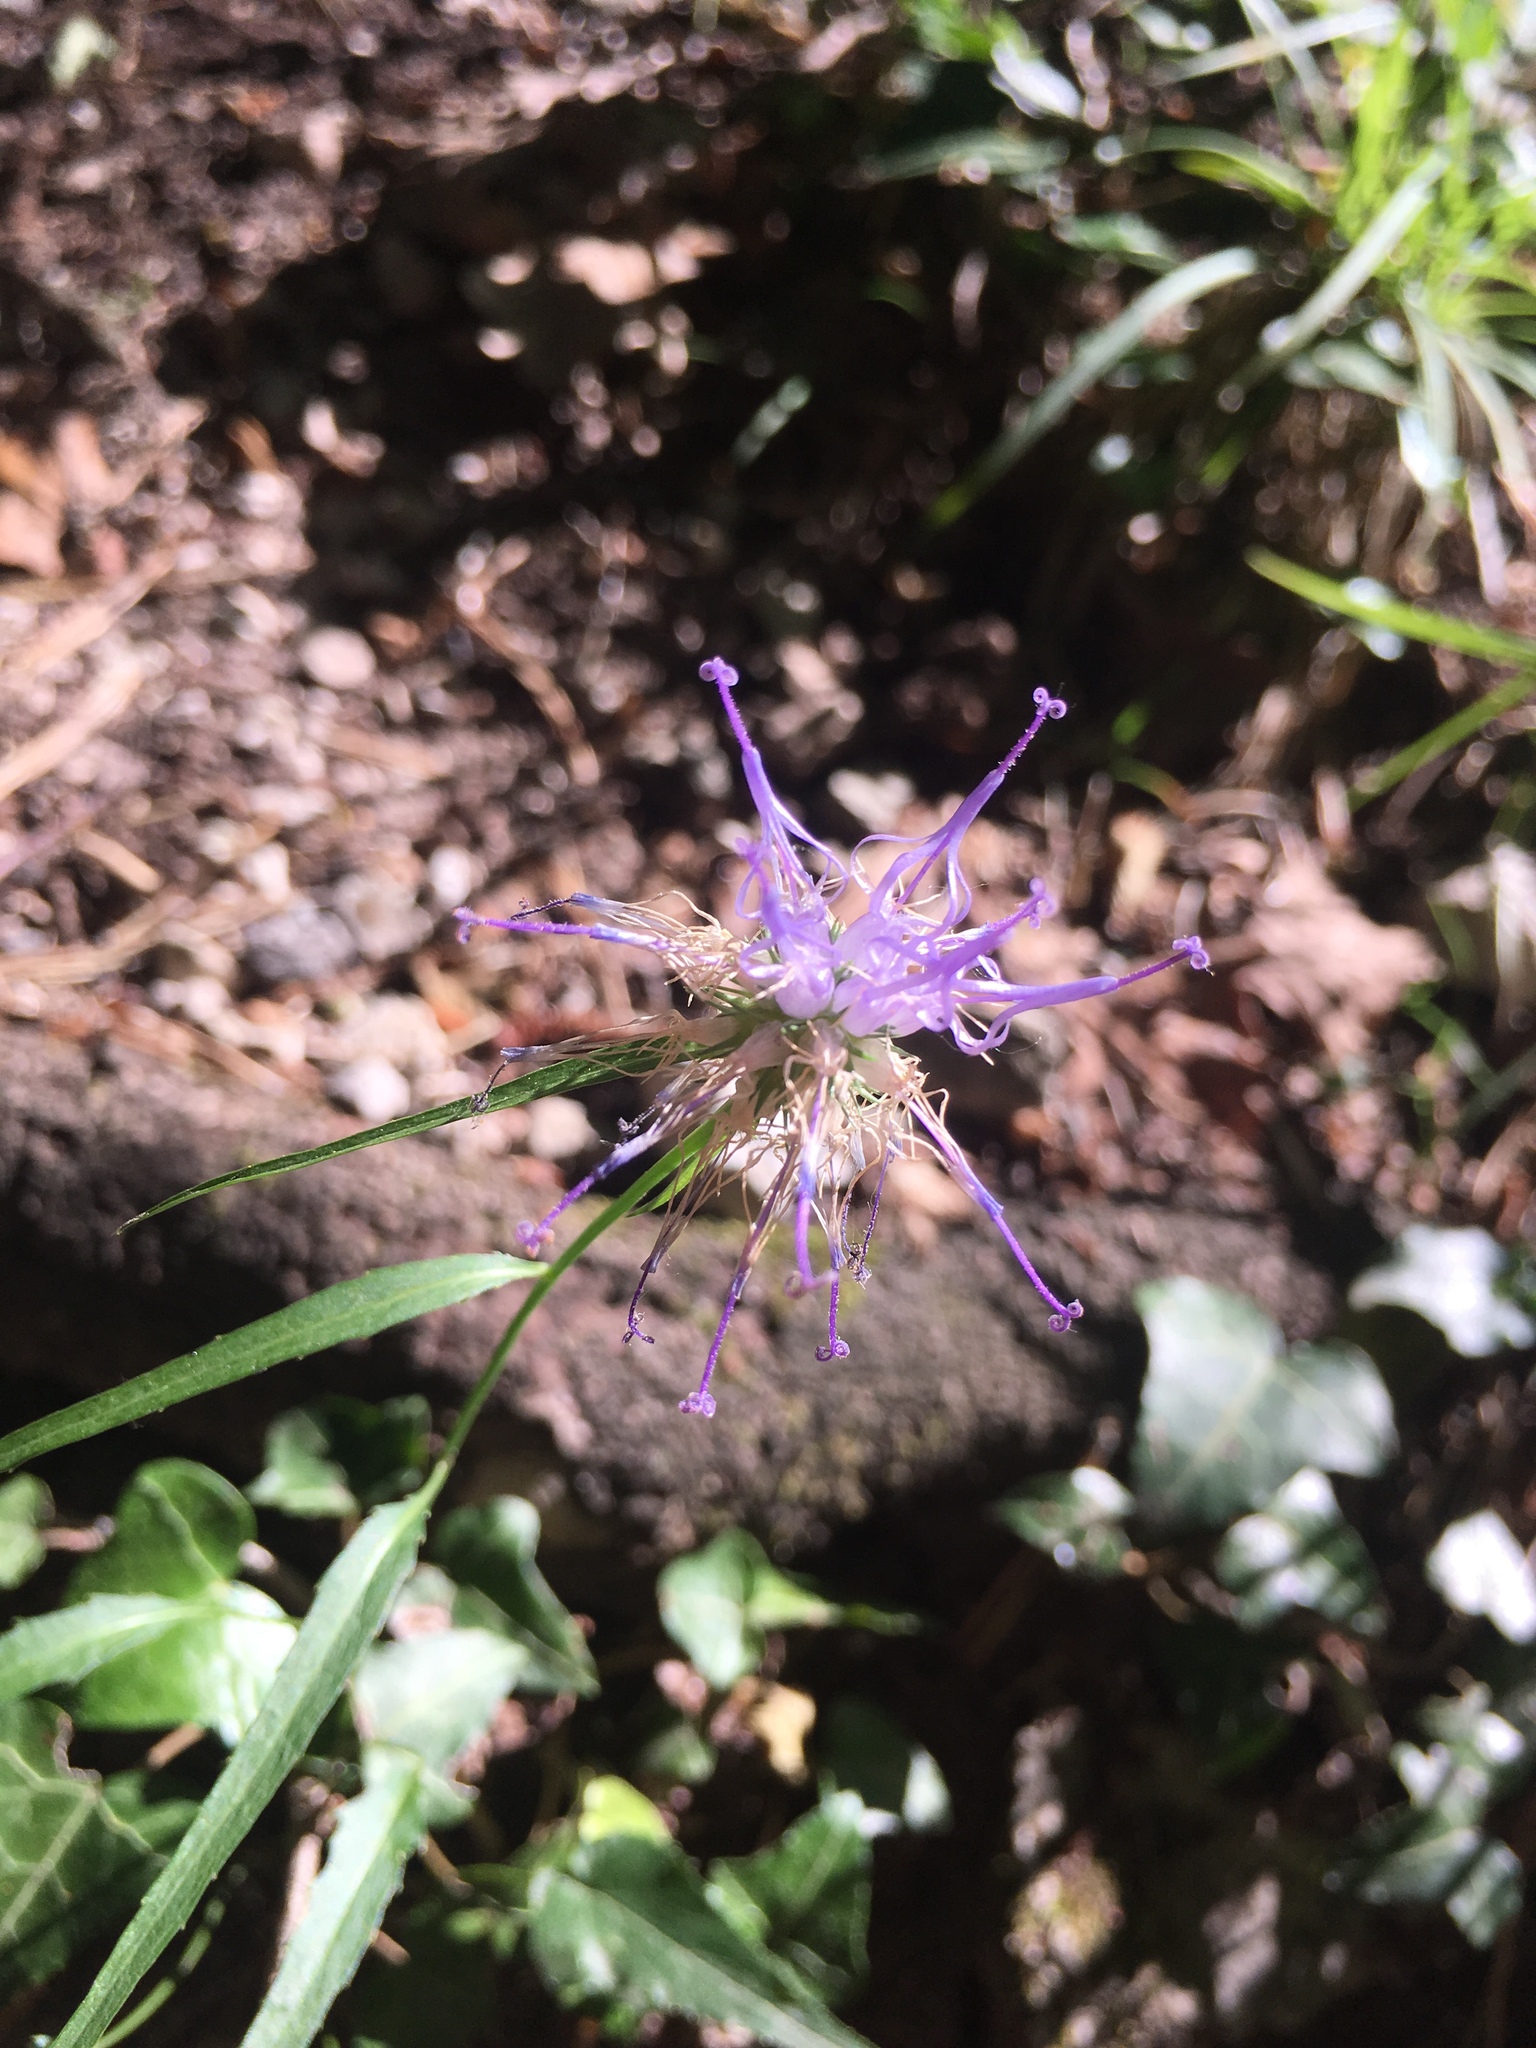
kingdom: Plantae
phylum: Tracheophyta
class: Magnoliopsida
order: Asterales
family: Campanulaceae
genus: Phyteuma
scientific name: Phyteuma scheuchzeri
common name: Oxford rampion
